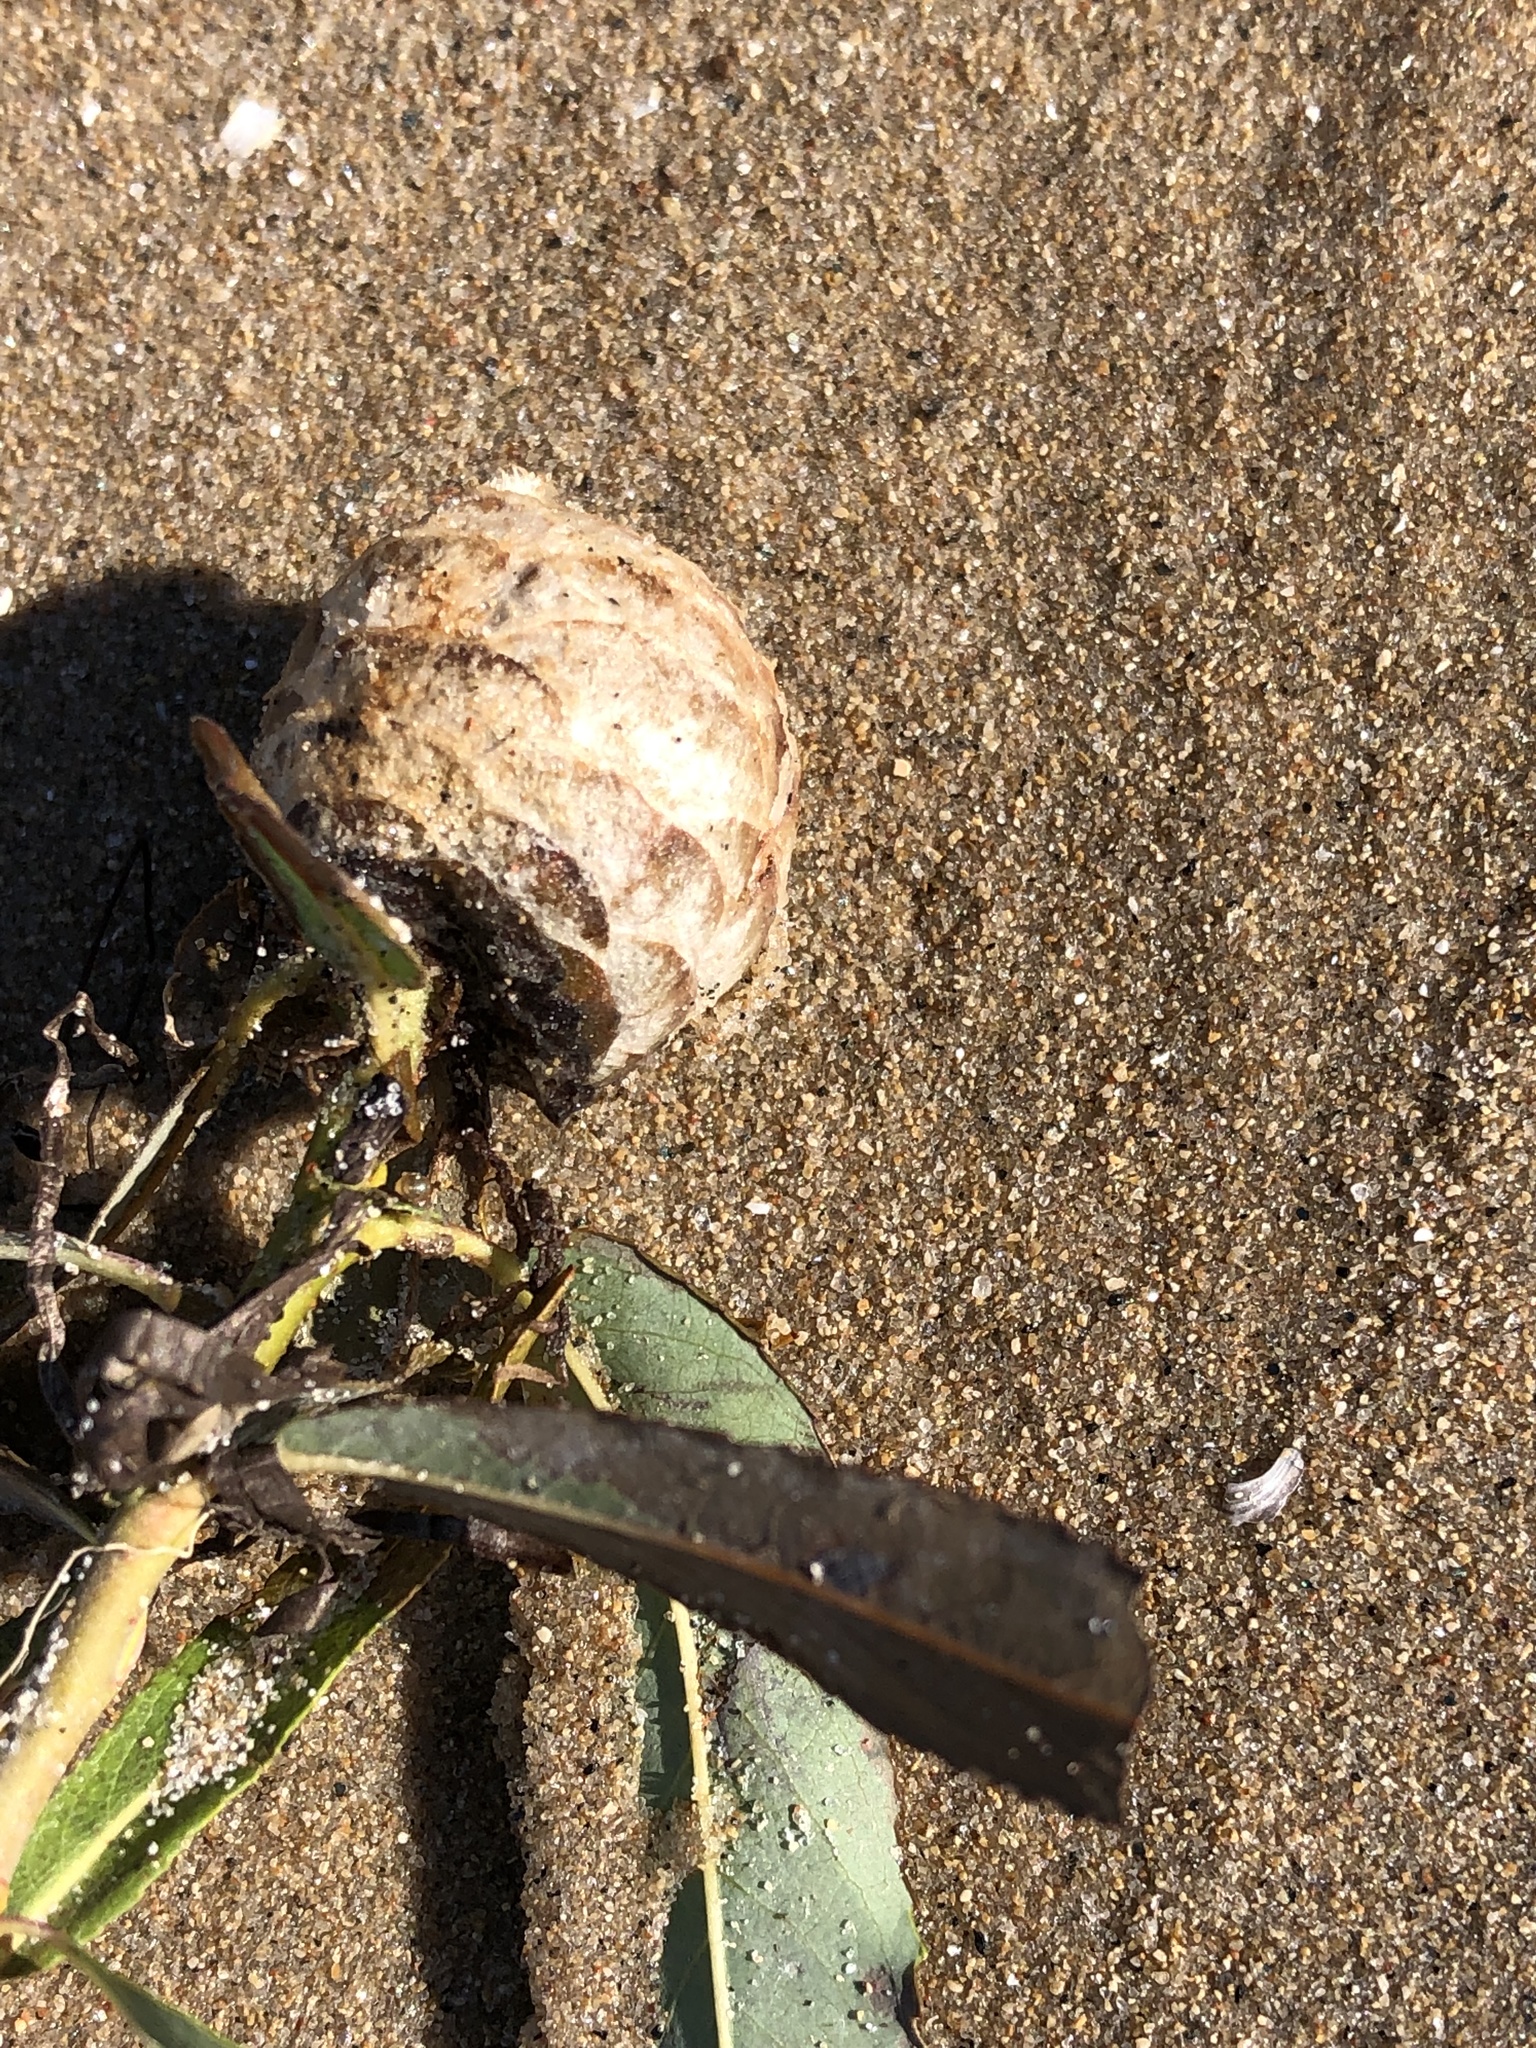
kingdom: Animalia
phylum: Arthropoda
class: Insecta
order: Diptera
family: Cecidomyiidae
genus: Rabdophaga
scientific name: Rabdophaga strobiloides
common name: Willow pinecone gall midge
